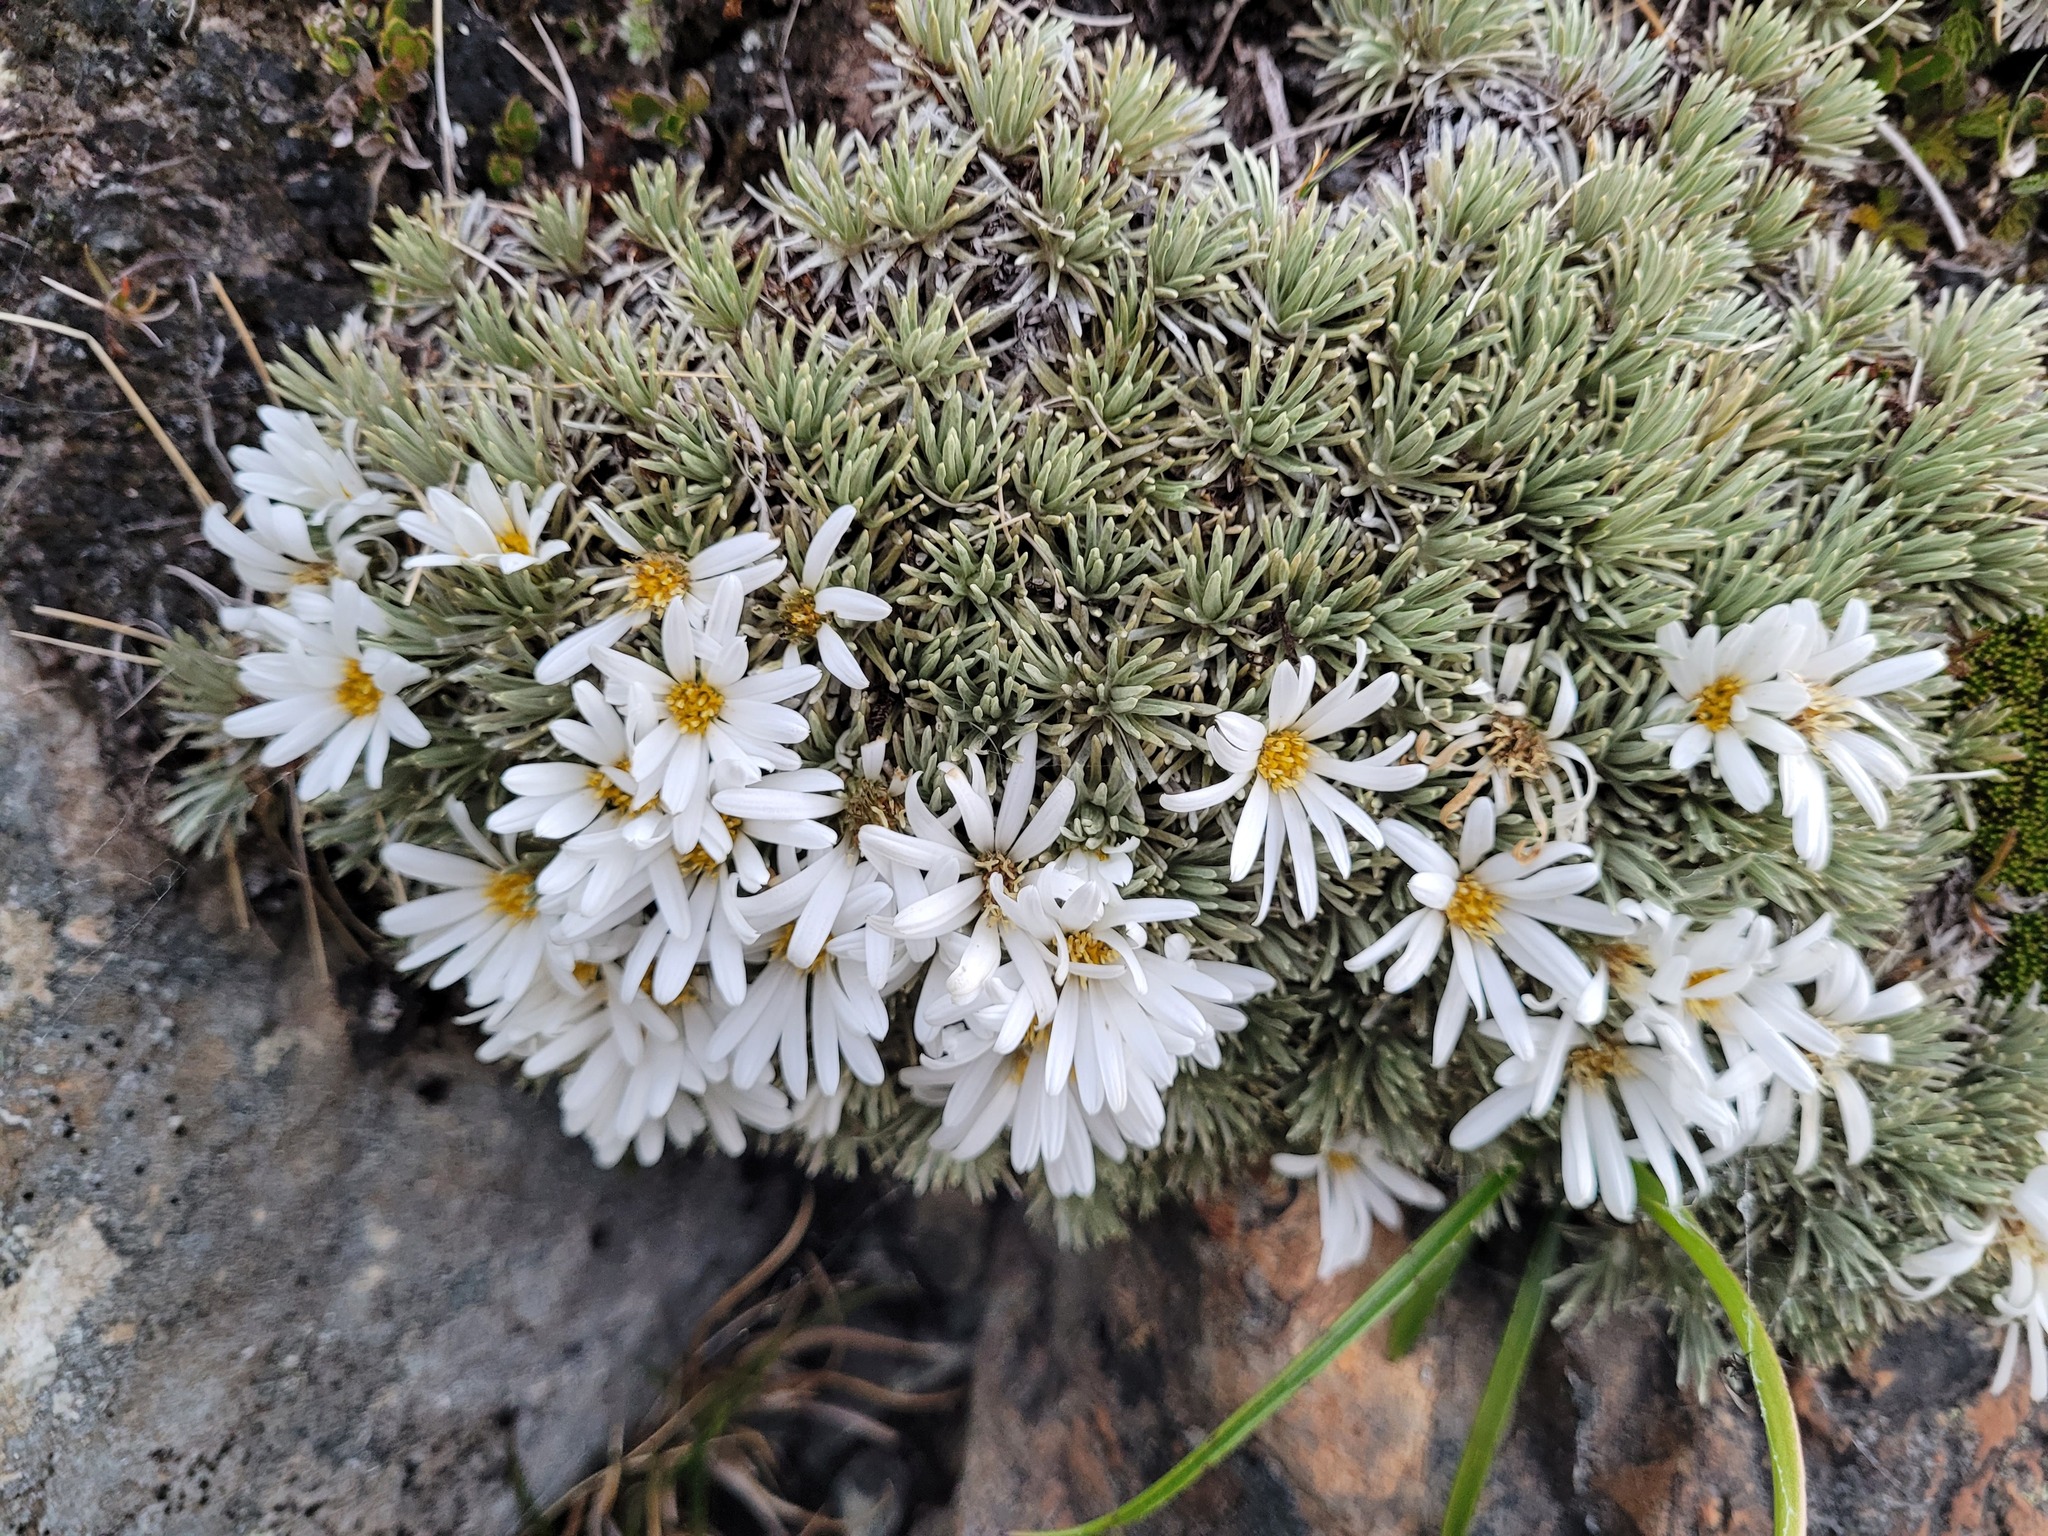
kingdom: Plantae
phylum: Tracheophyta
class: Magnoliopsida
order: Asterales
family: Asteraceae
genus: Celmisia
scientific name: Celmisia sessiliflora
